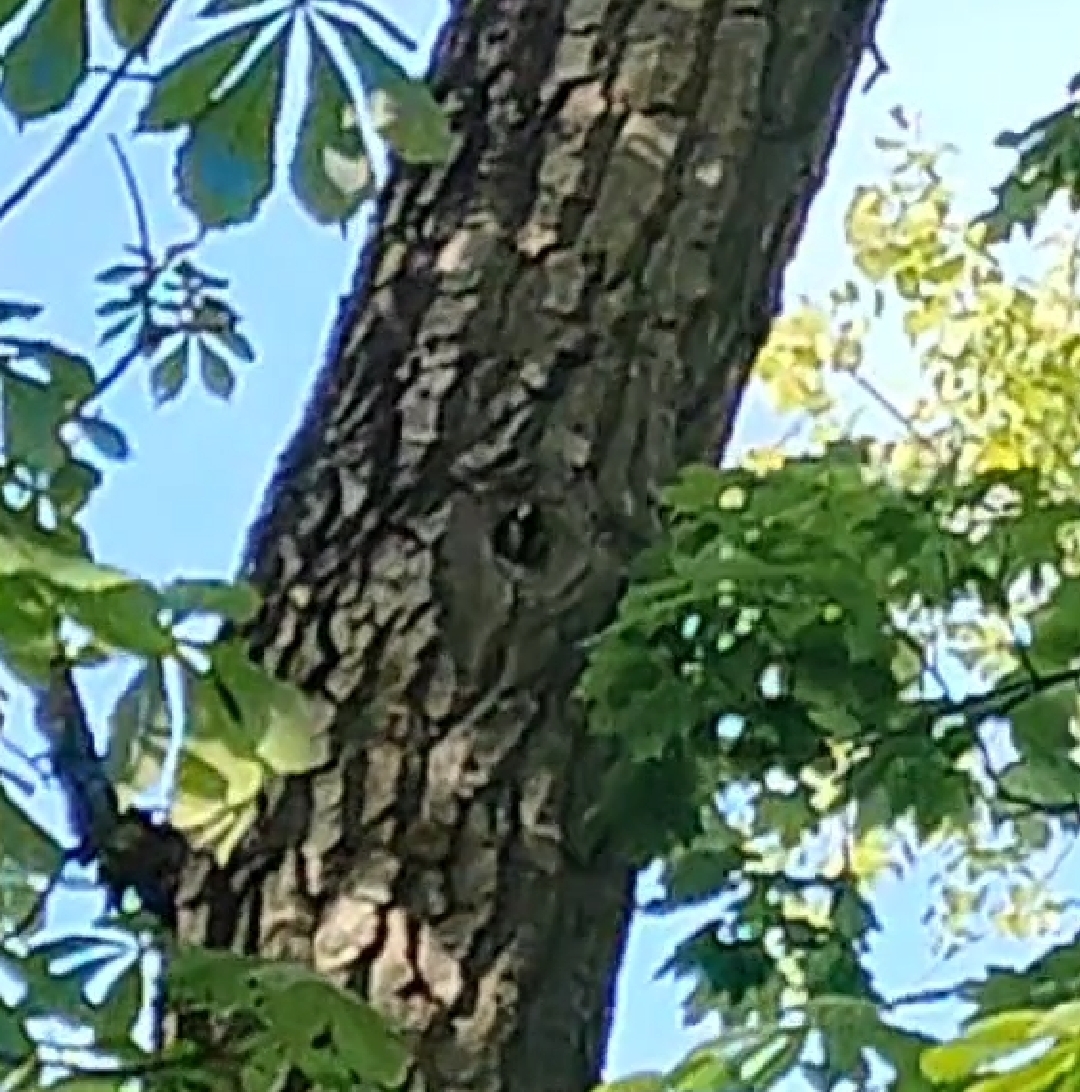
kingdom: Animalia
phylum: Chordata
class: Aves
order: Passeriformes
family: Paridae
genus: Parus
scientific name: Parus major
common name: Great tit
